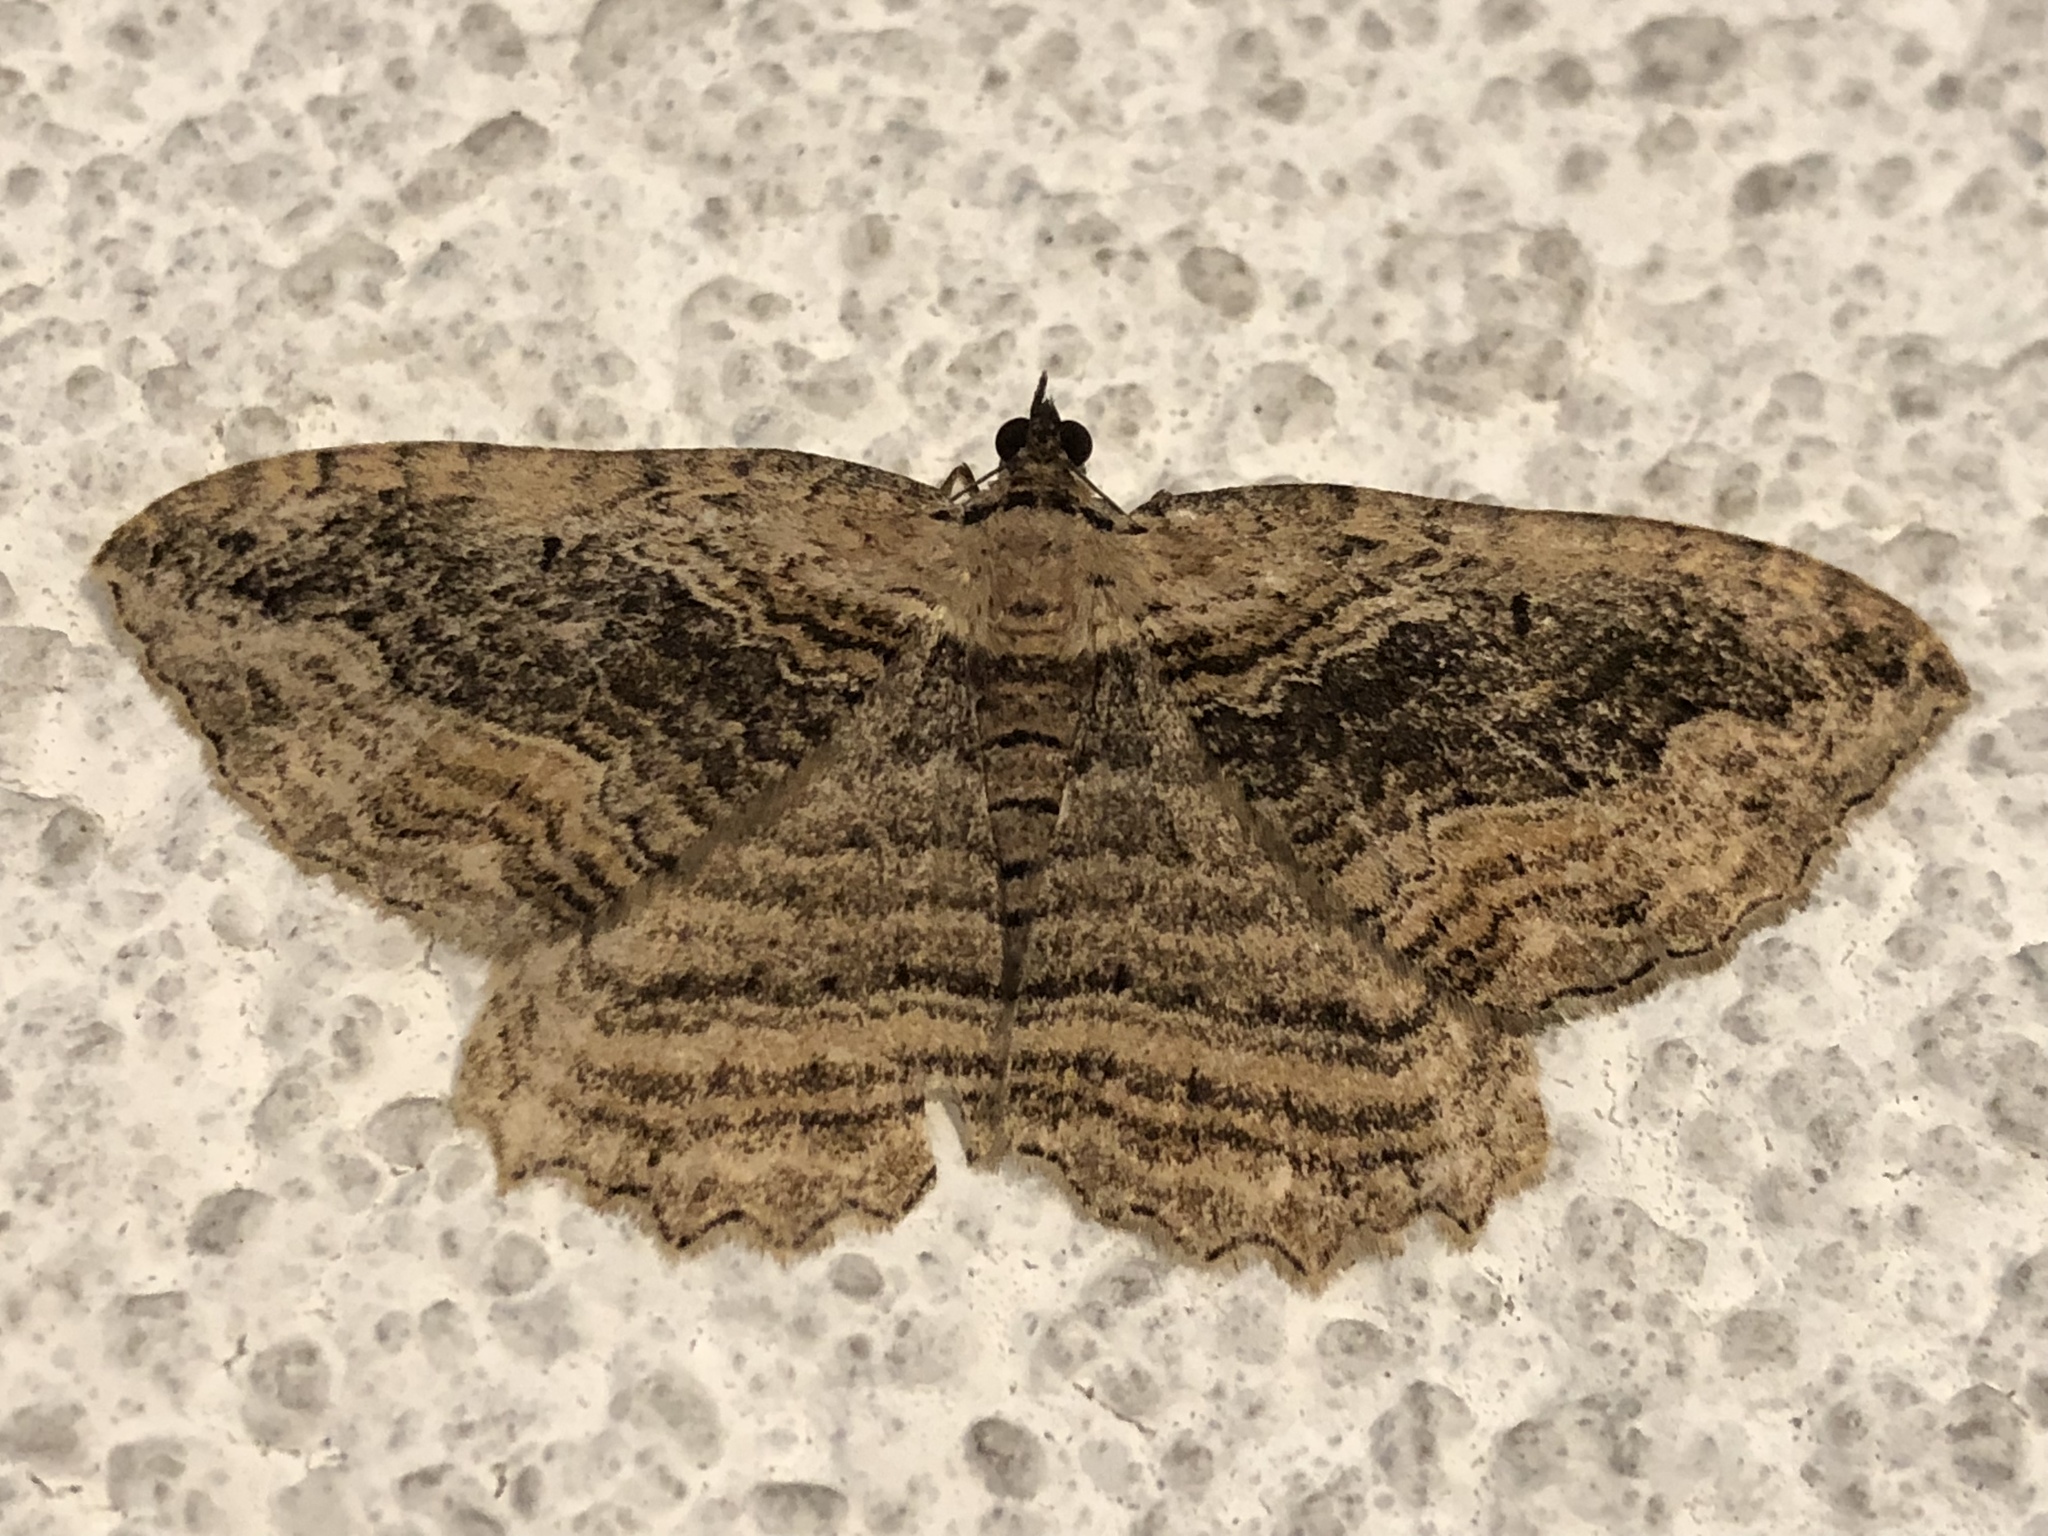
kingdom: Animalia
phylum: Arthropoda
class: Insecta
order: Lepidoptera
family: Geometridae
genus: Philereme
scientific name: Philereme transversata
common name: Dark umber
